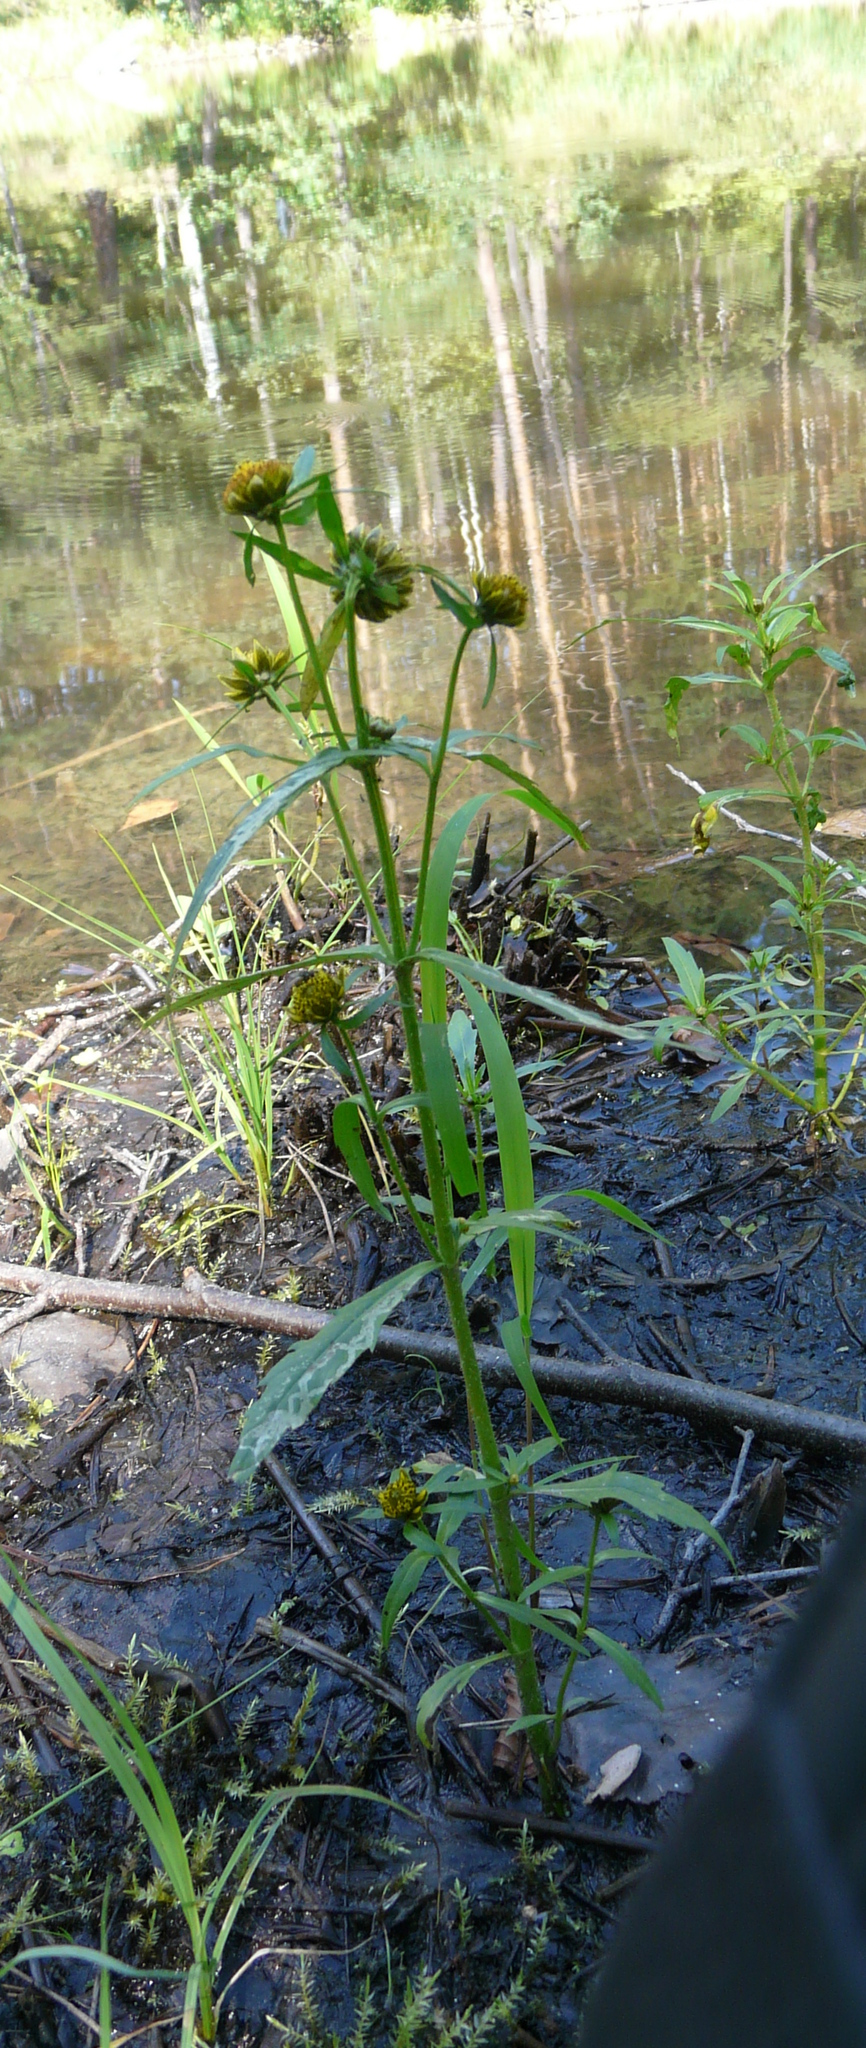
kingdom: Plantae
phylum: Tracheophyta
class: Magnoliopsida
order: Asterales
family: Asteraceae
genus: Bidens
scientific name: Bidens cernua
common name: Nodding bur-marigold
